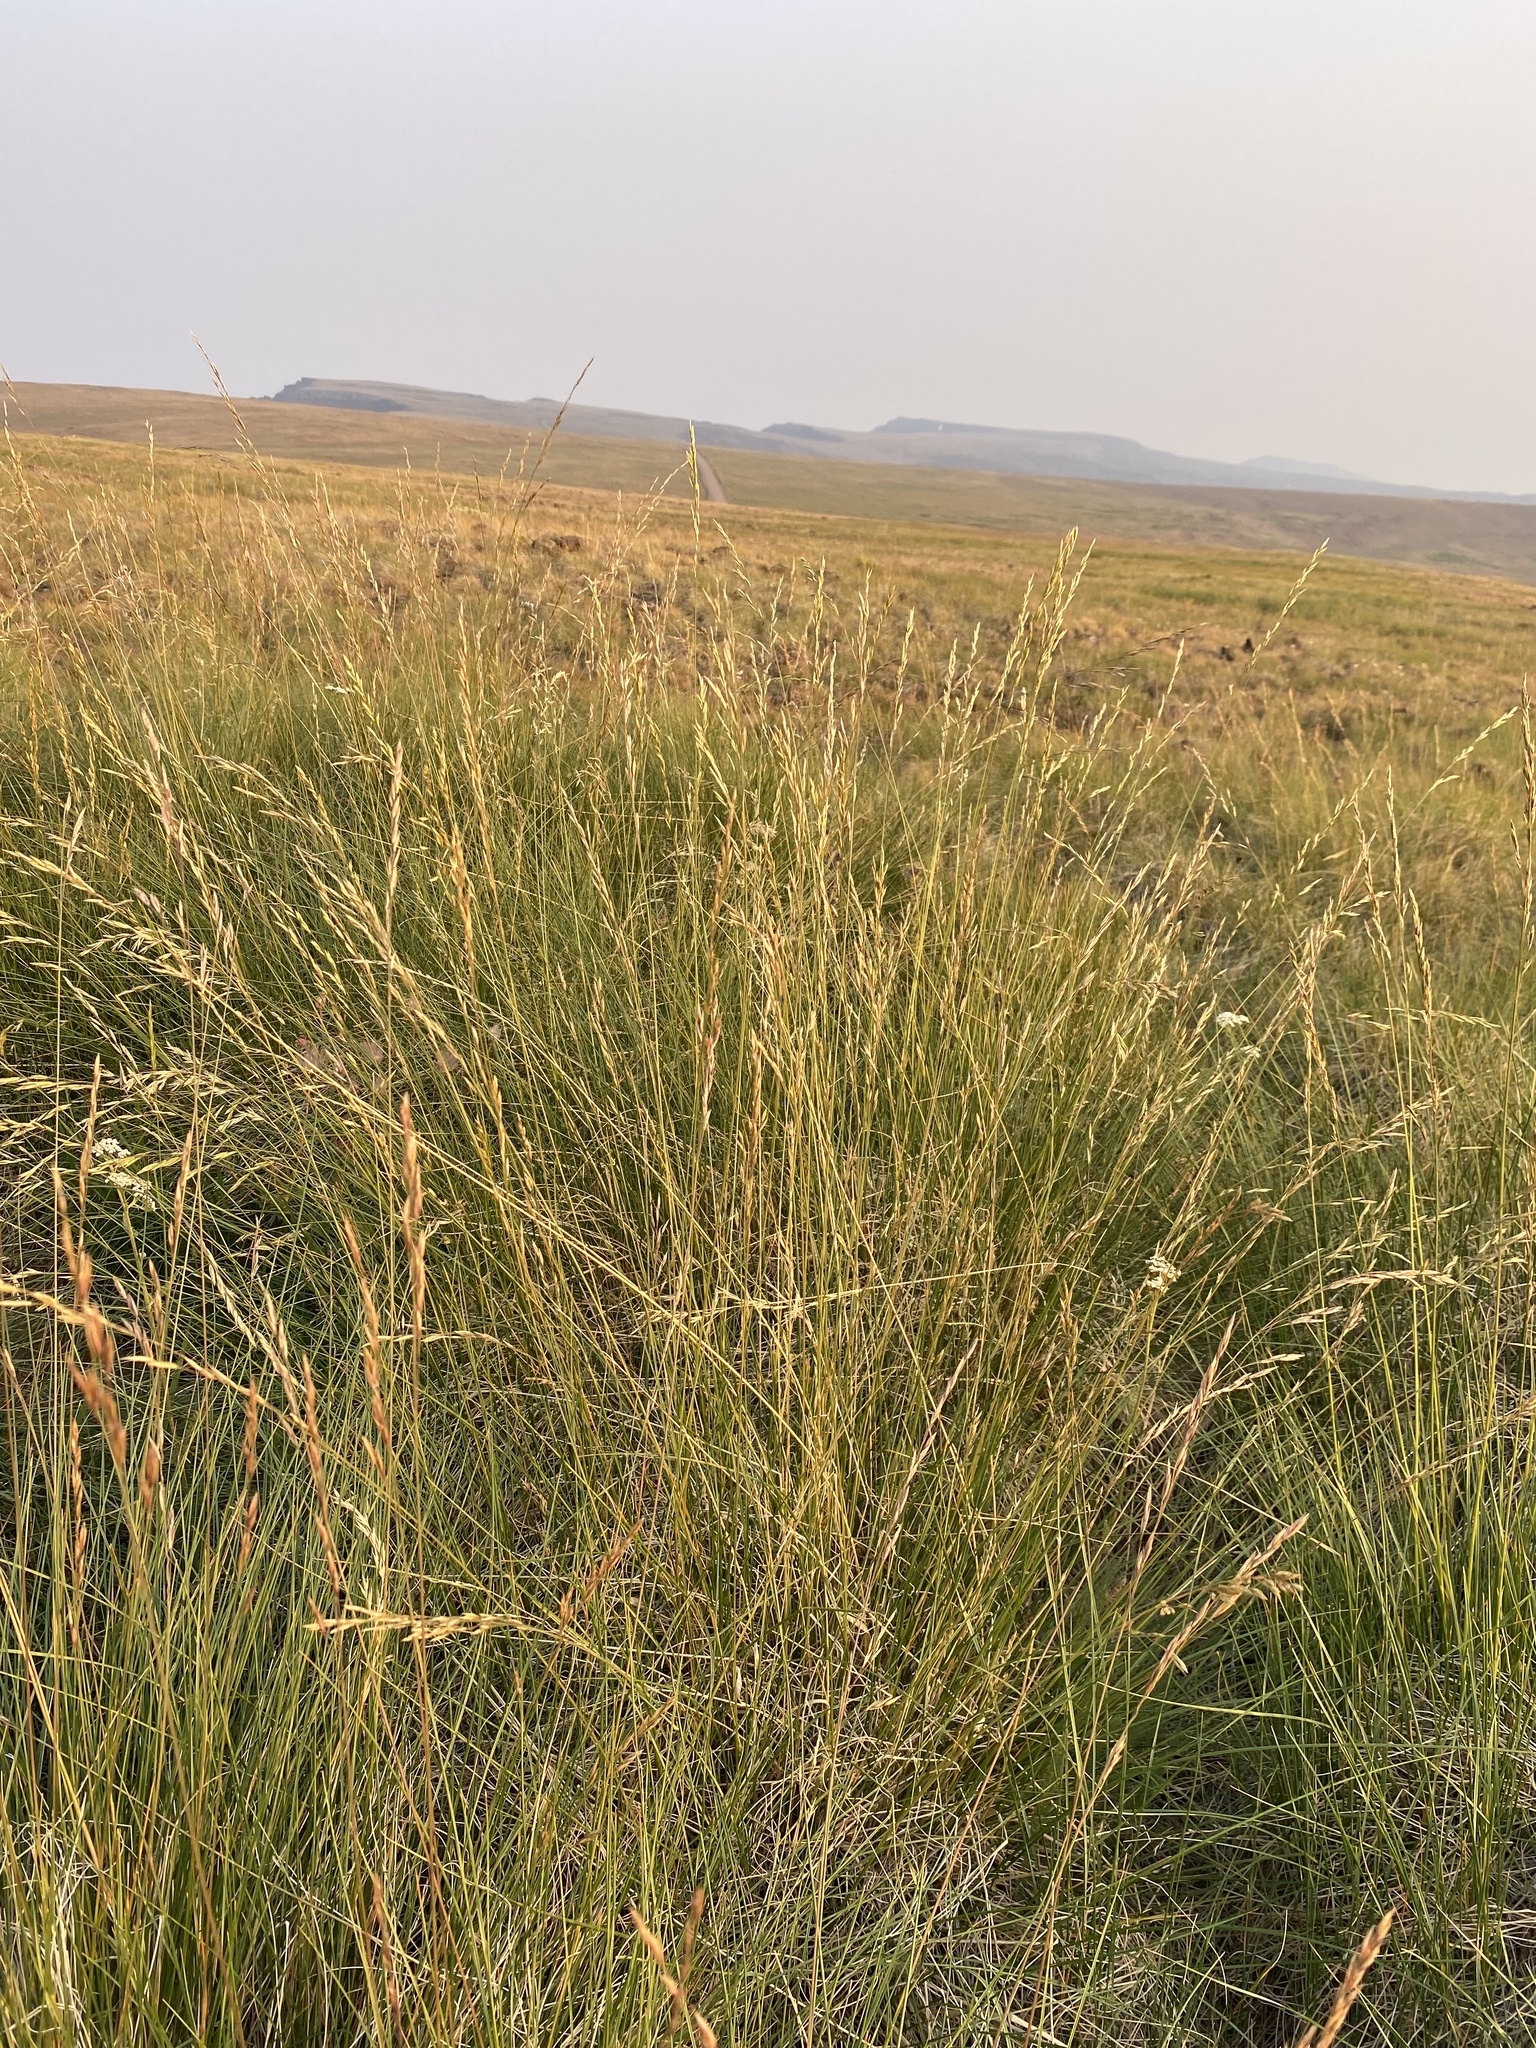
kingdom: Plantae
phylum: Tracheophyta
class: Liliopsida
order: Poales
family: Poaceae
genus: Festuca
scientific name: Festuca campestris
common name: Mountain rough fescue
